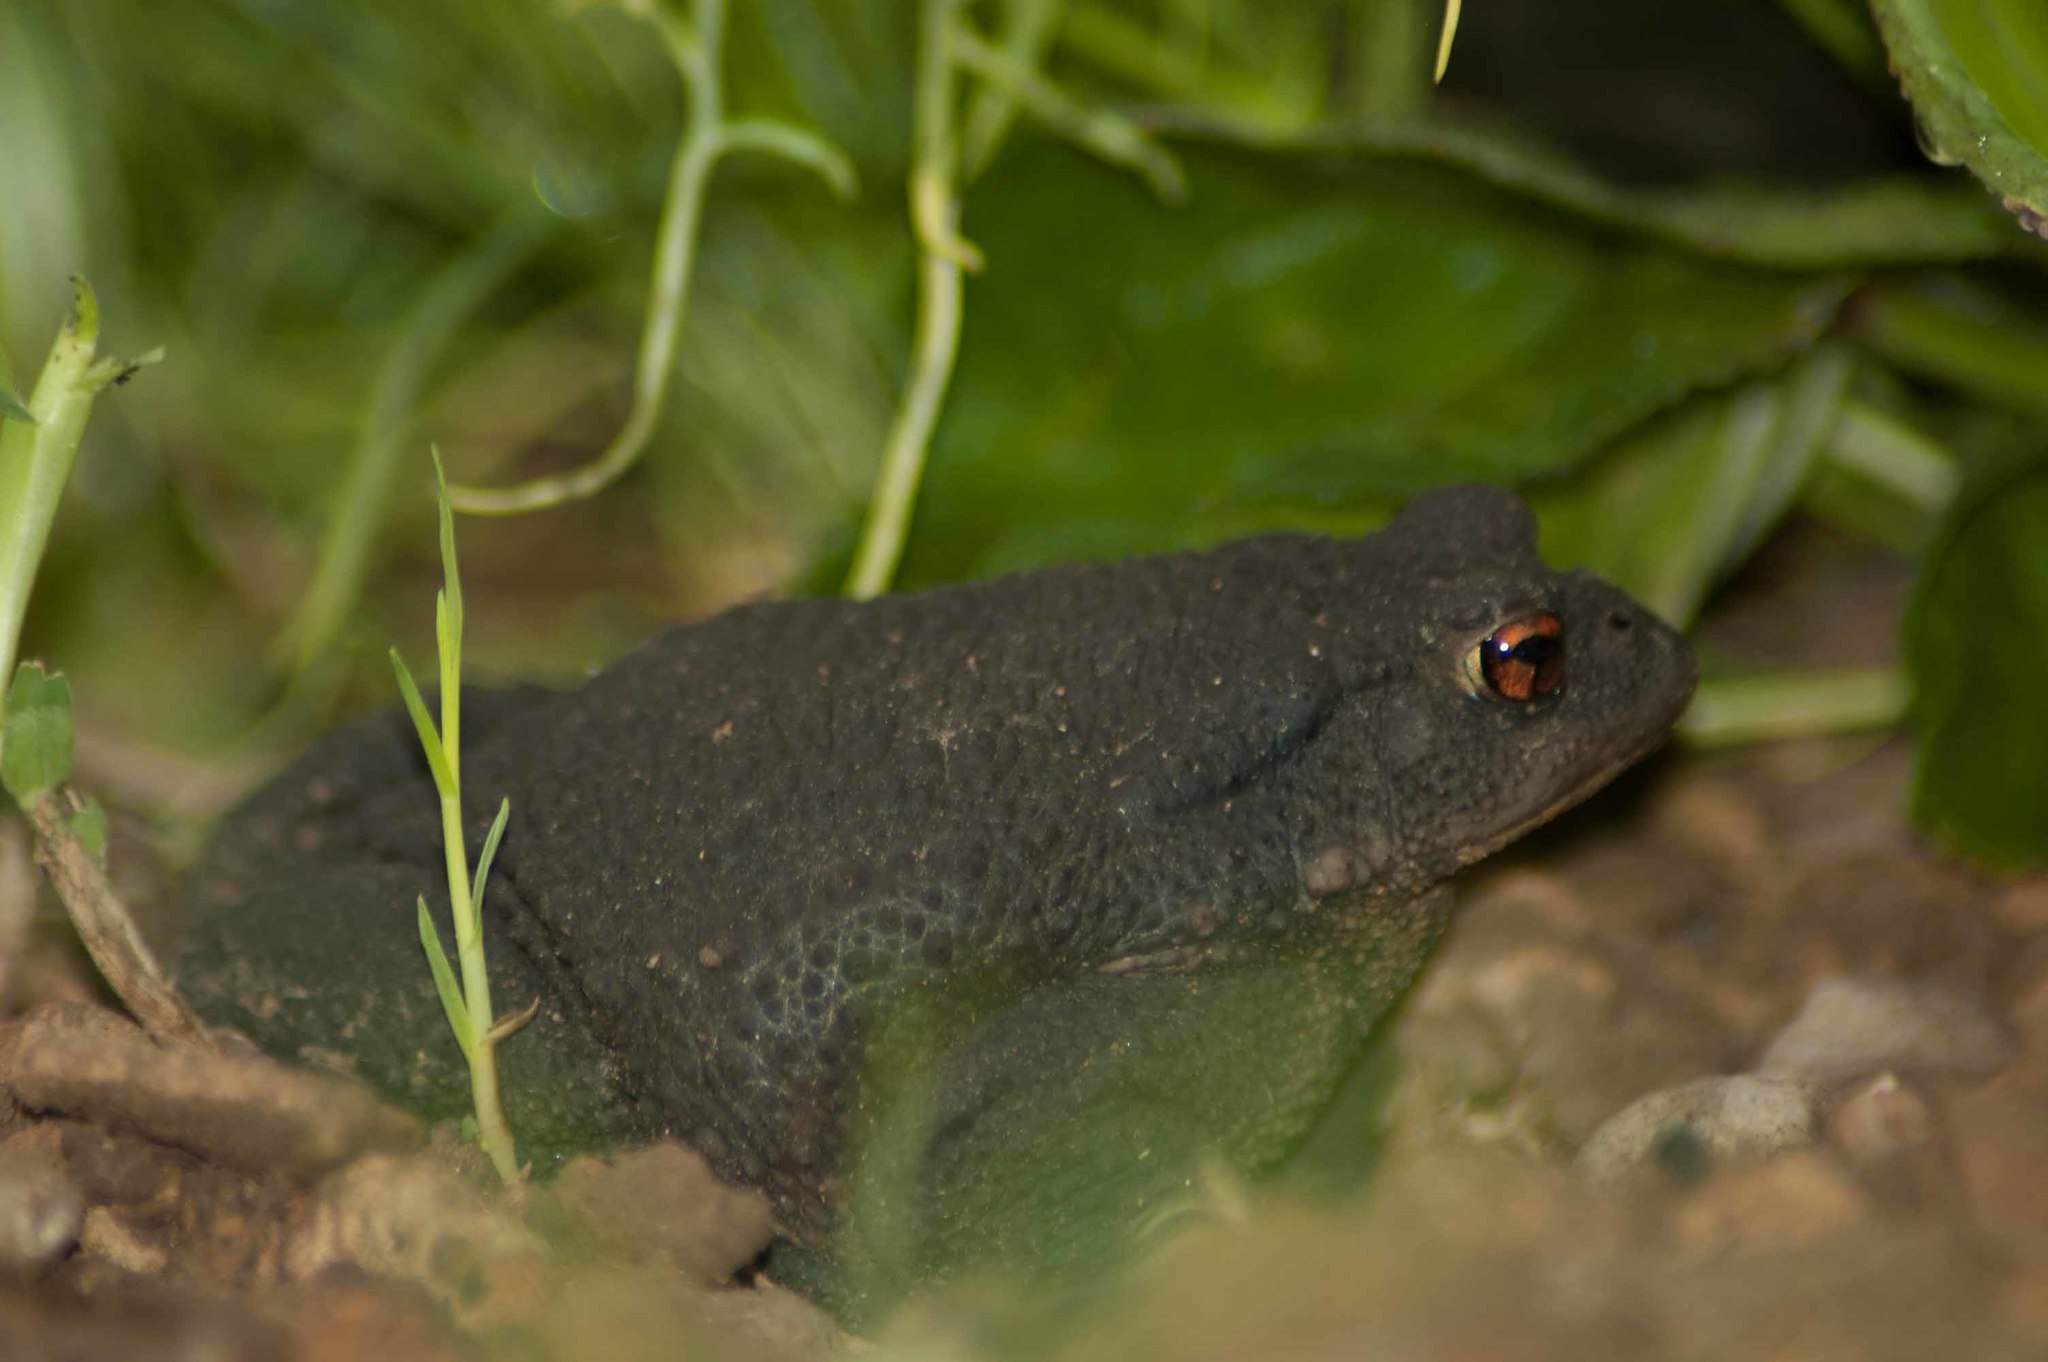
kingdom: Animalia
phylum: Chordata
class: Amphibia
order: Anura
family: Bufonidae
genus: Bufo
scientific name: Bufo spinosus
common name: Western common toad
